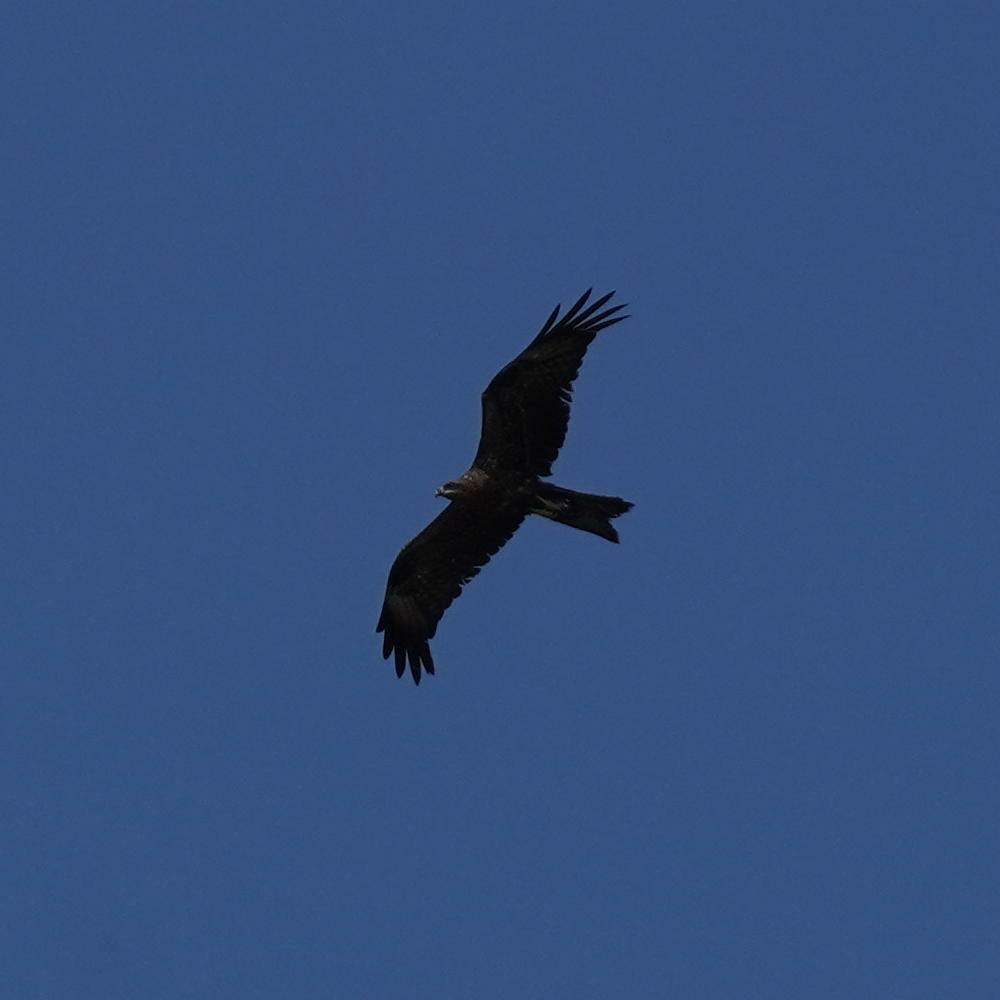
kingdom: Animalia
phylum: Chordata
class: Aves
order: Accipitriformes
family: Accipitridae
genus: Milvus
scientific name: Milvus migrans
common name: Black kite
